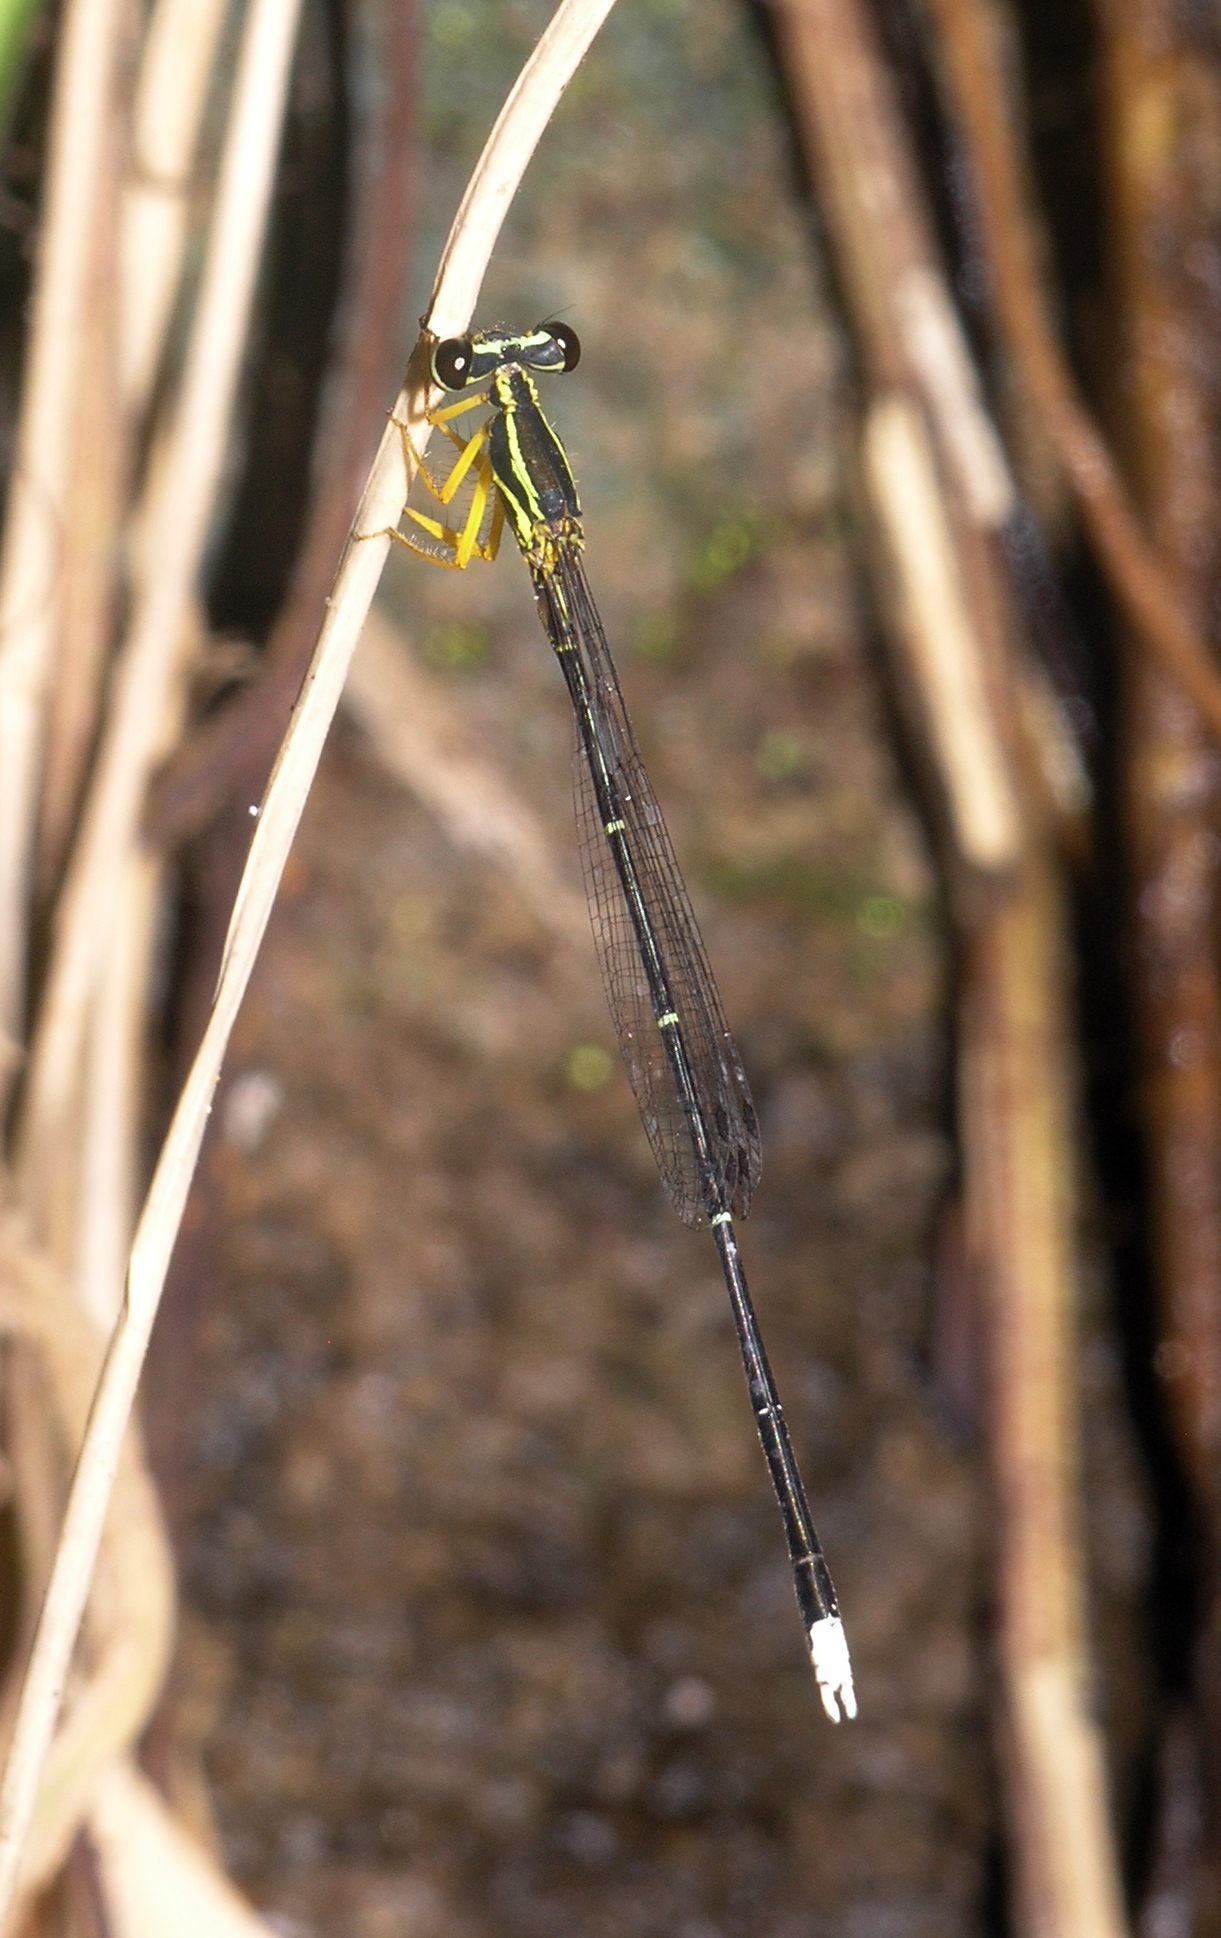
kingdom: Animalia
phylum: Arthropoda
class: Insecta
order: Odonata
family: Platycnemididae
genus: Copera
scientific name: Copera marginipes
